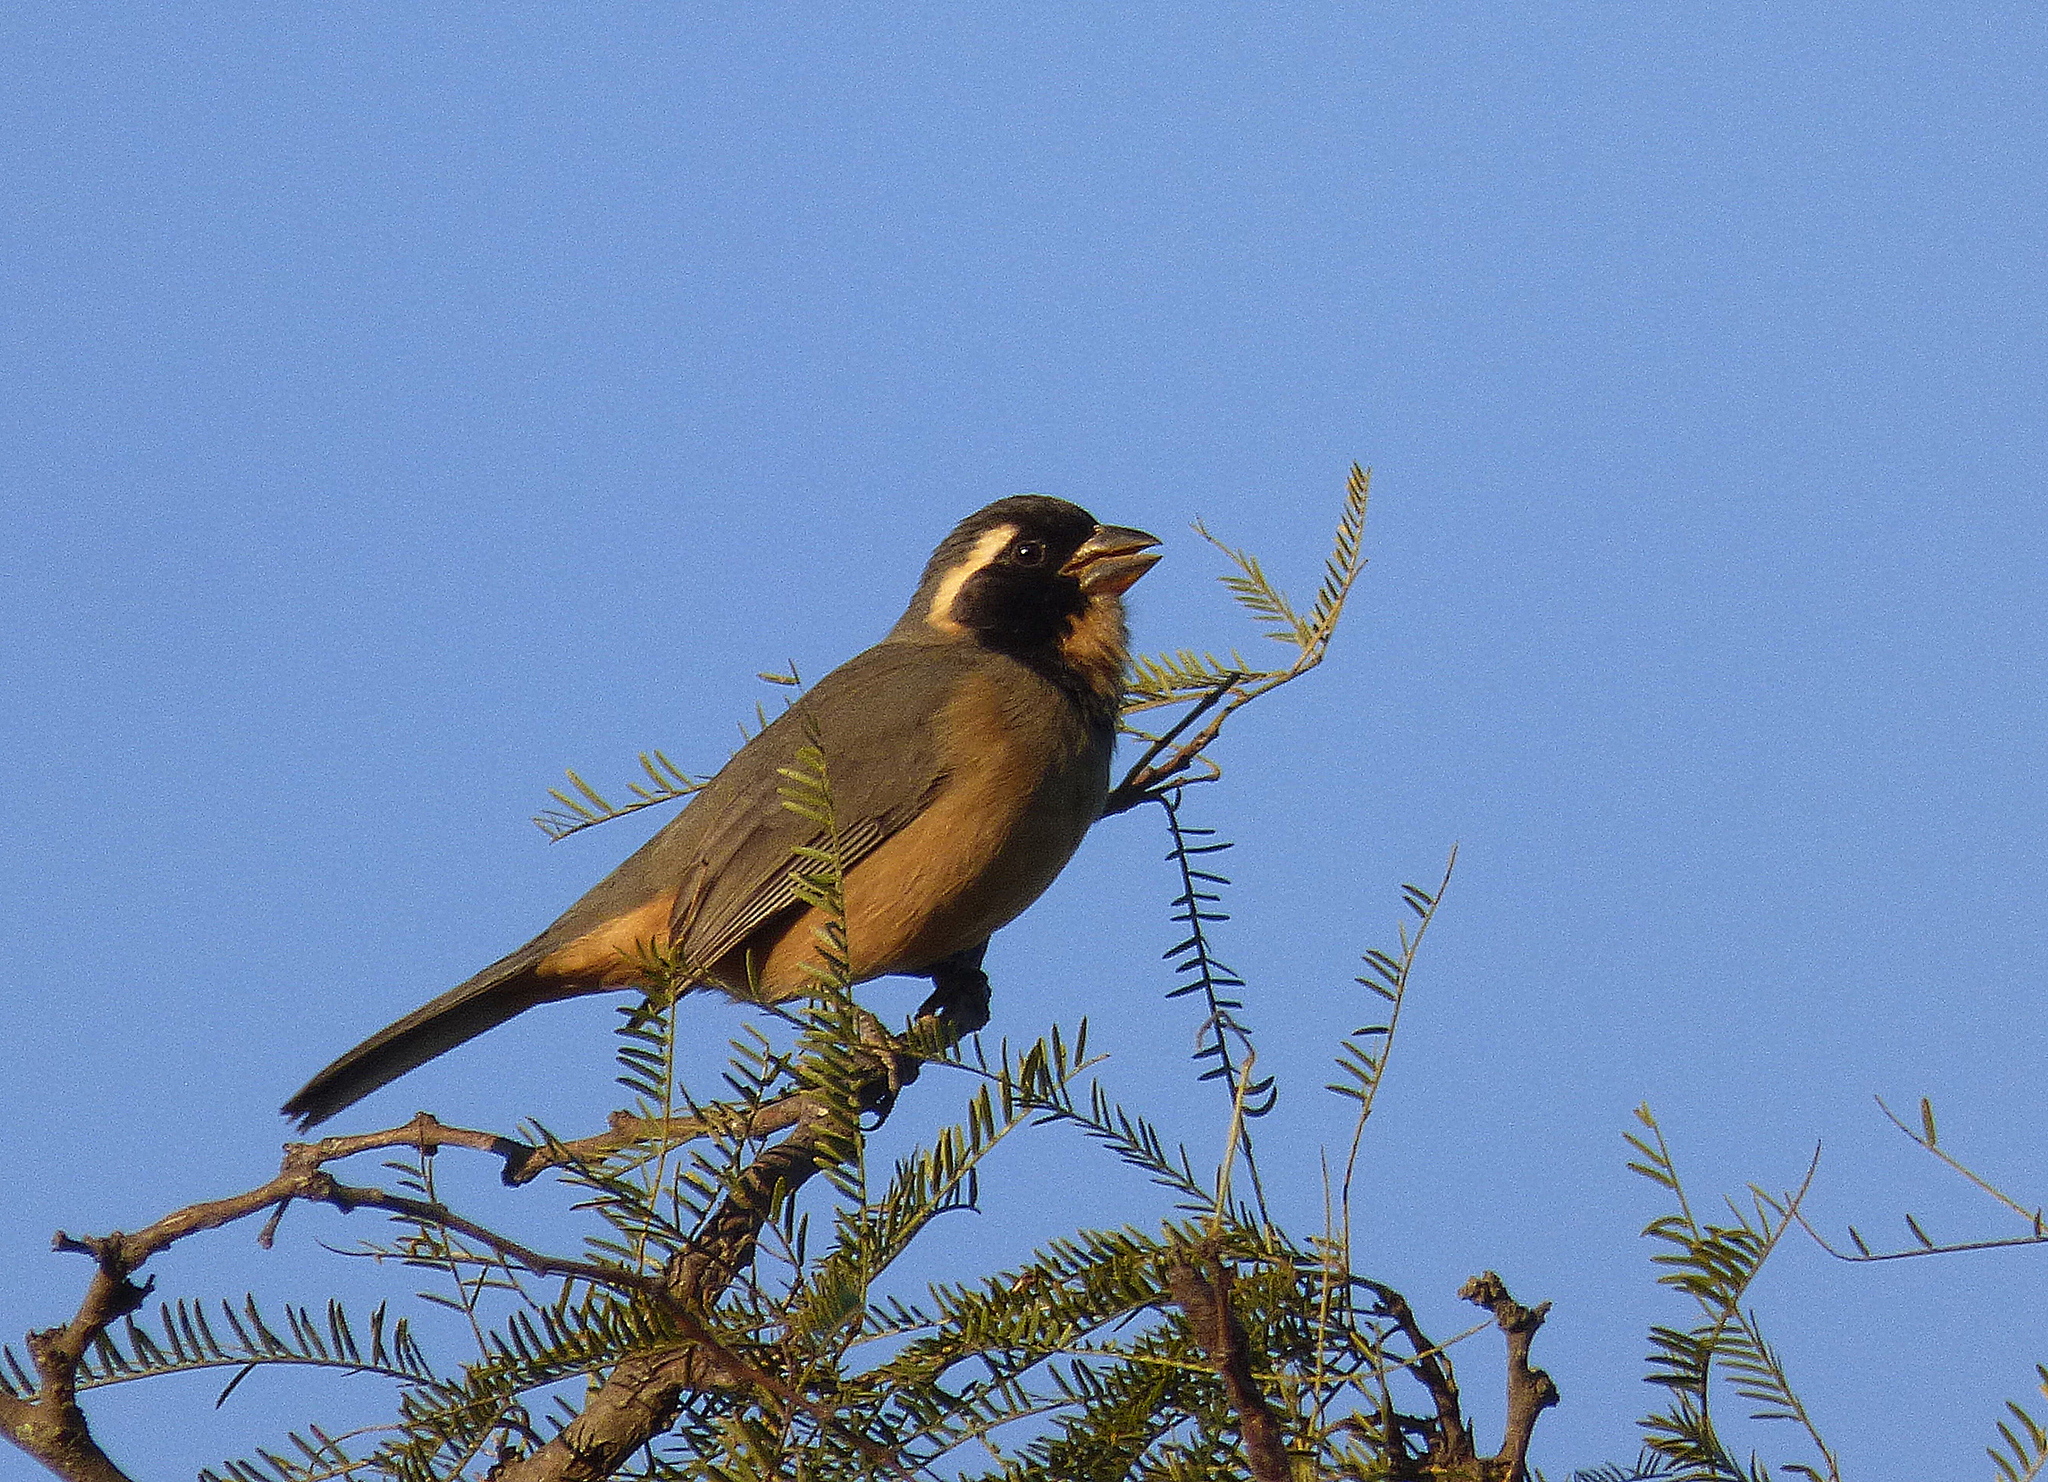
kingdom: Animalia
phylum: Chordata
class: Aves
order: Passeriformes
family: Thraupidae
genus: Saltator
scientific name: Saltator aurantiirostris
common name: Golden-billed saltator
